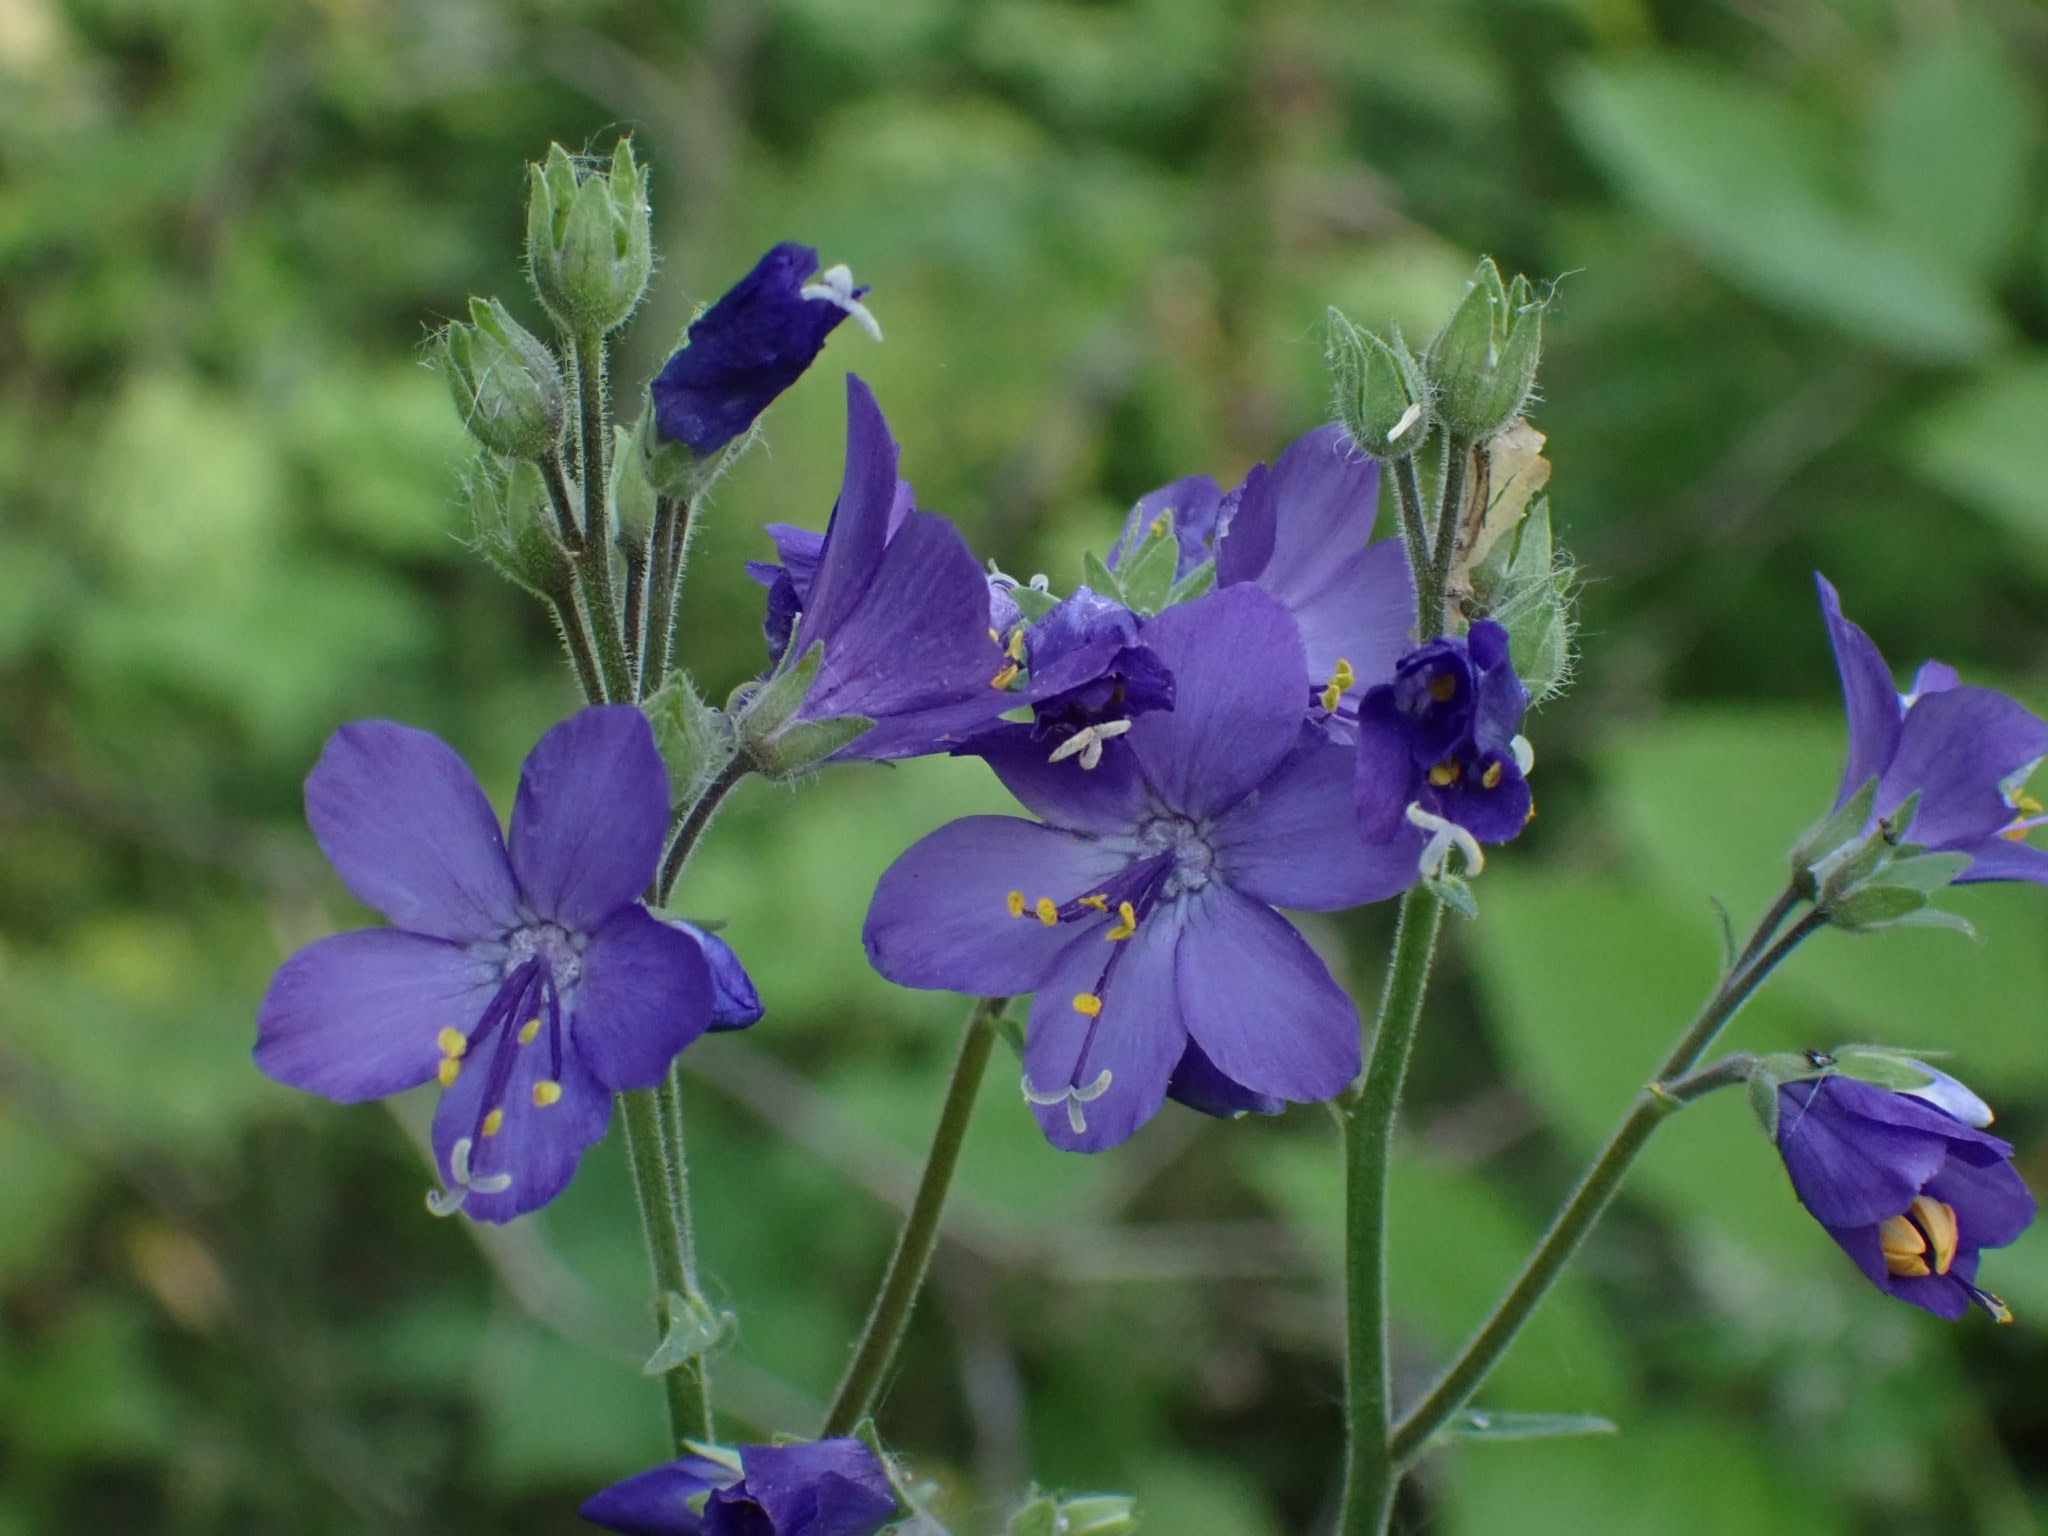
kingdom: Plantae
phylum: Tracheophyta
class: Magnoliopsida
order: Ericales
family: Polemoniaceae
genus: Polemonium
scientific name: Polemonium caeruleum
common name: Jacob's-ladder
